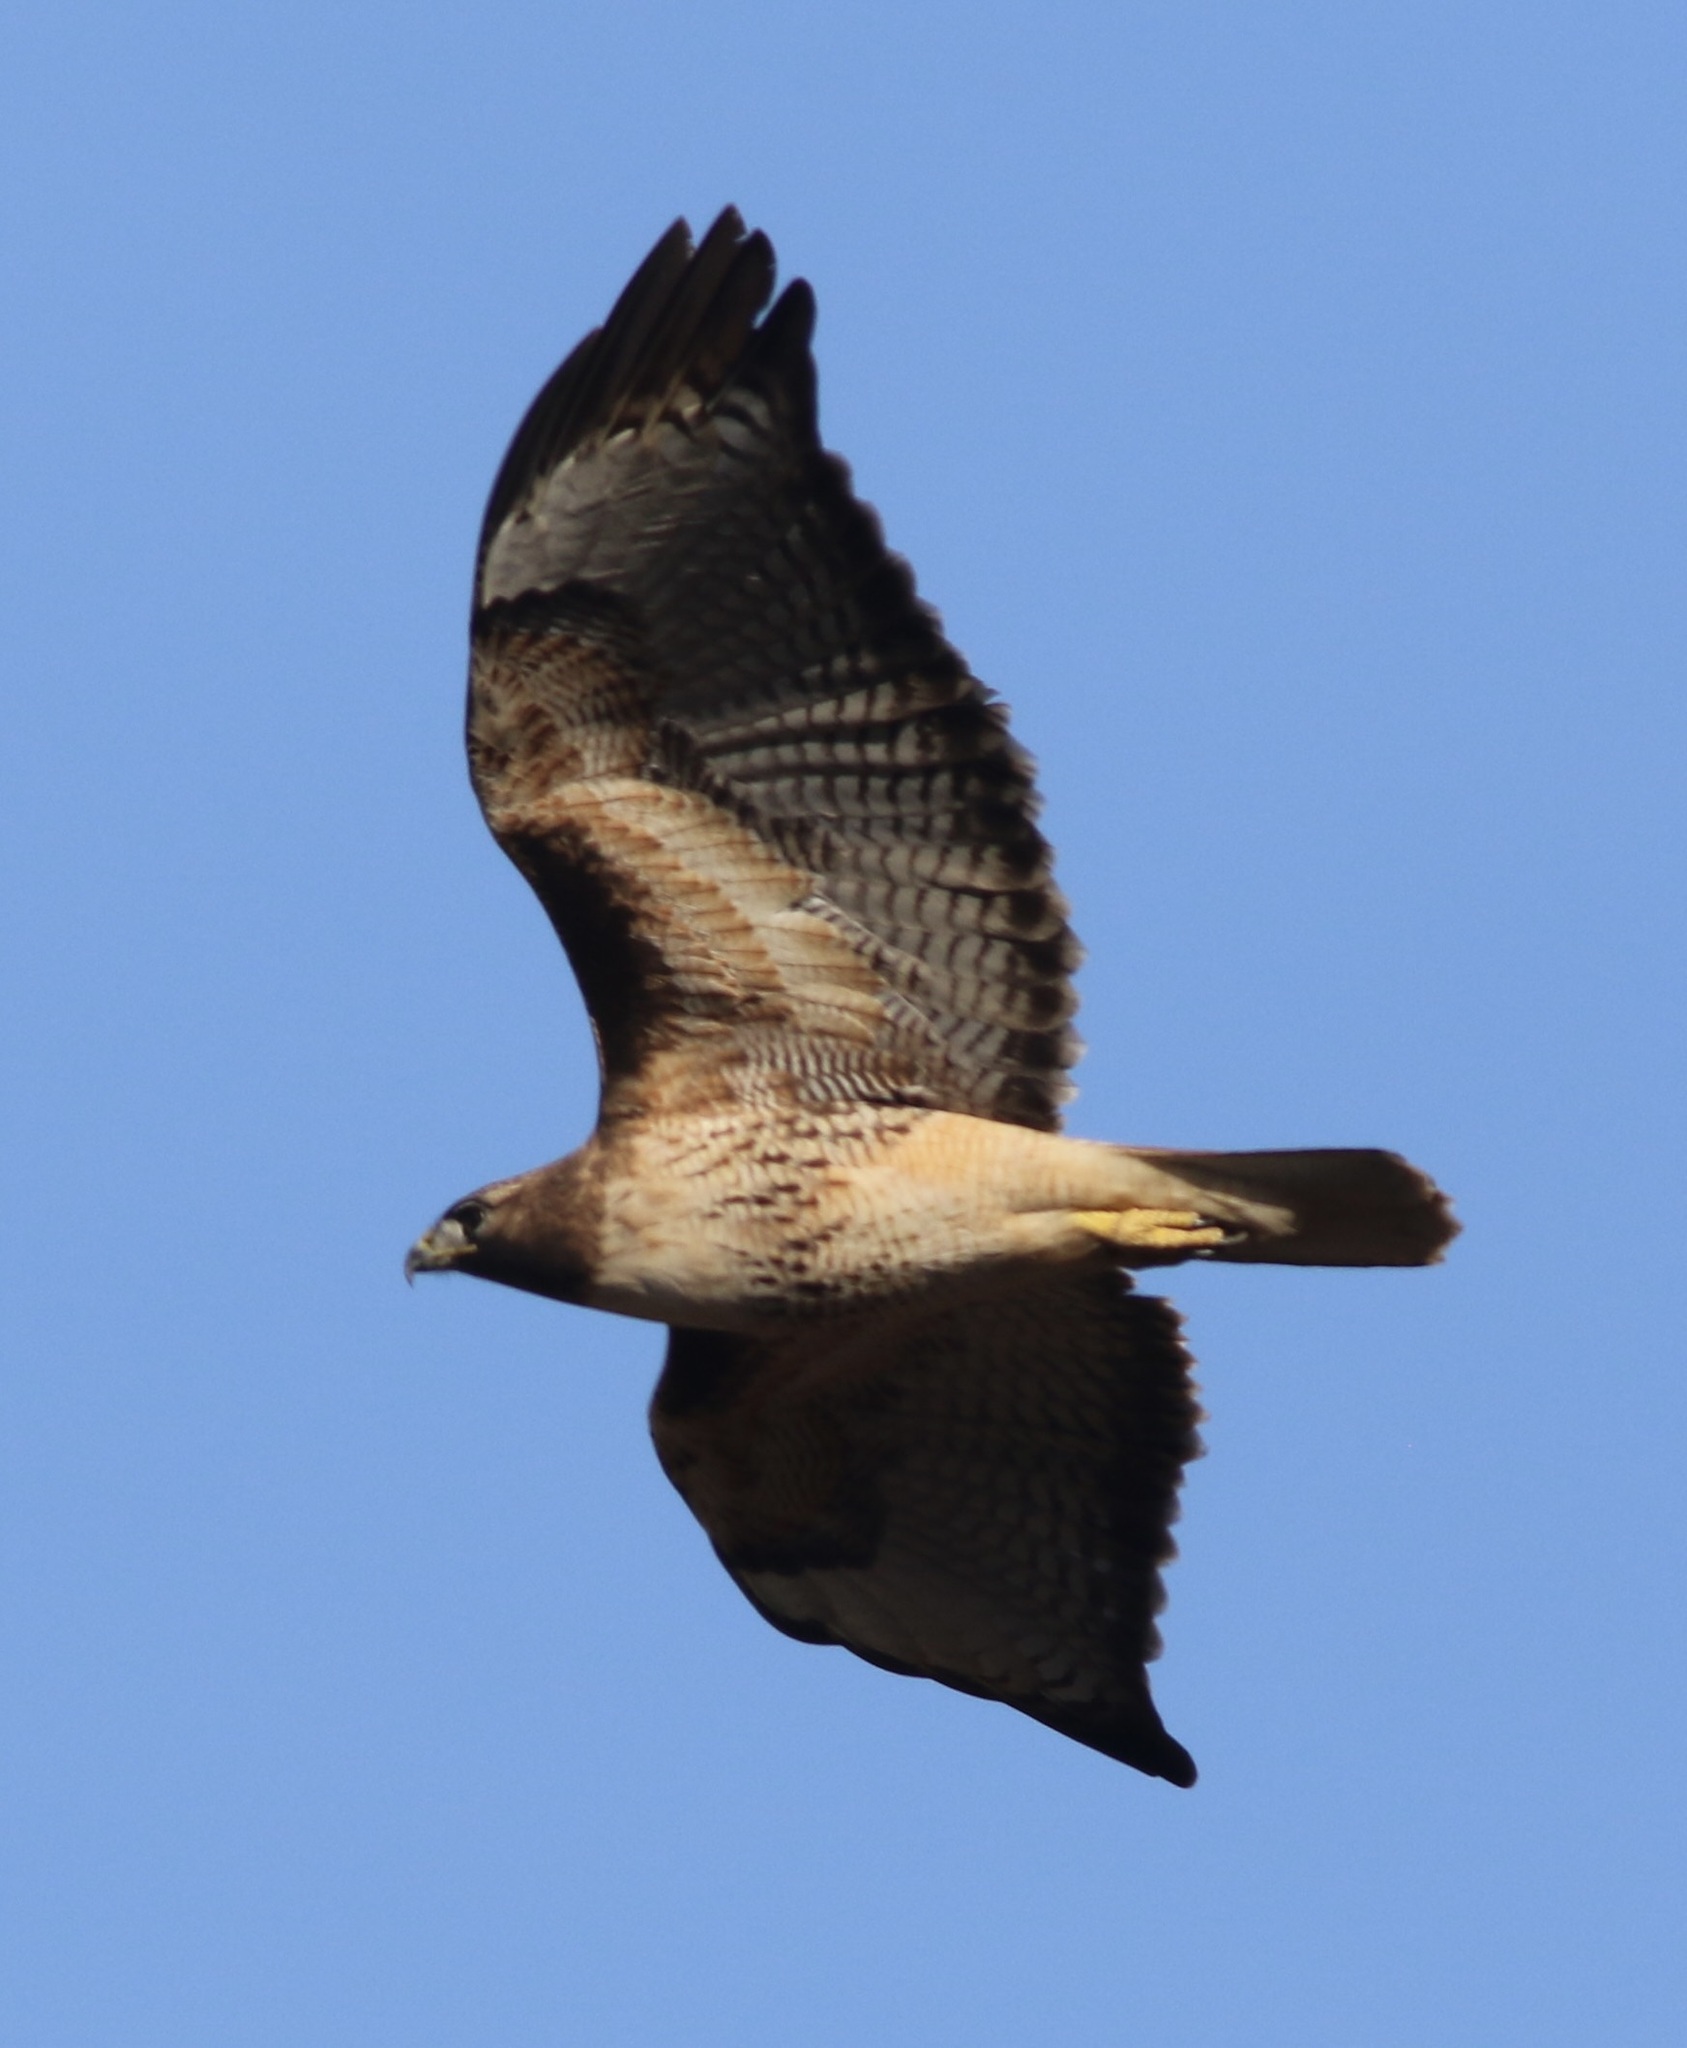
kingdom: Animalia
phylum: Chordata
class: Aves
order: Accipitriformes
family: Accipitridae
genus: Buteo
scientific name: Buteo jamaicensis
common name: Red-tailed hawk
